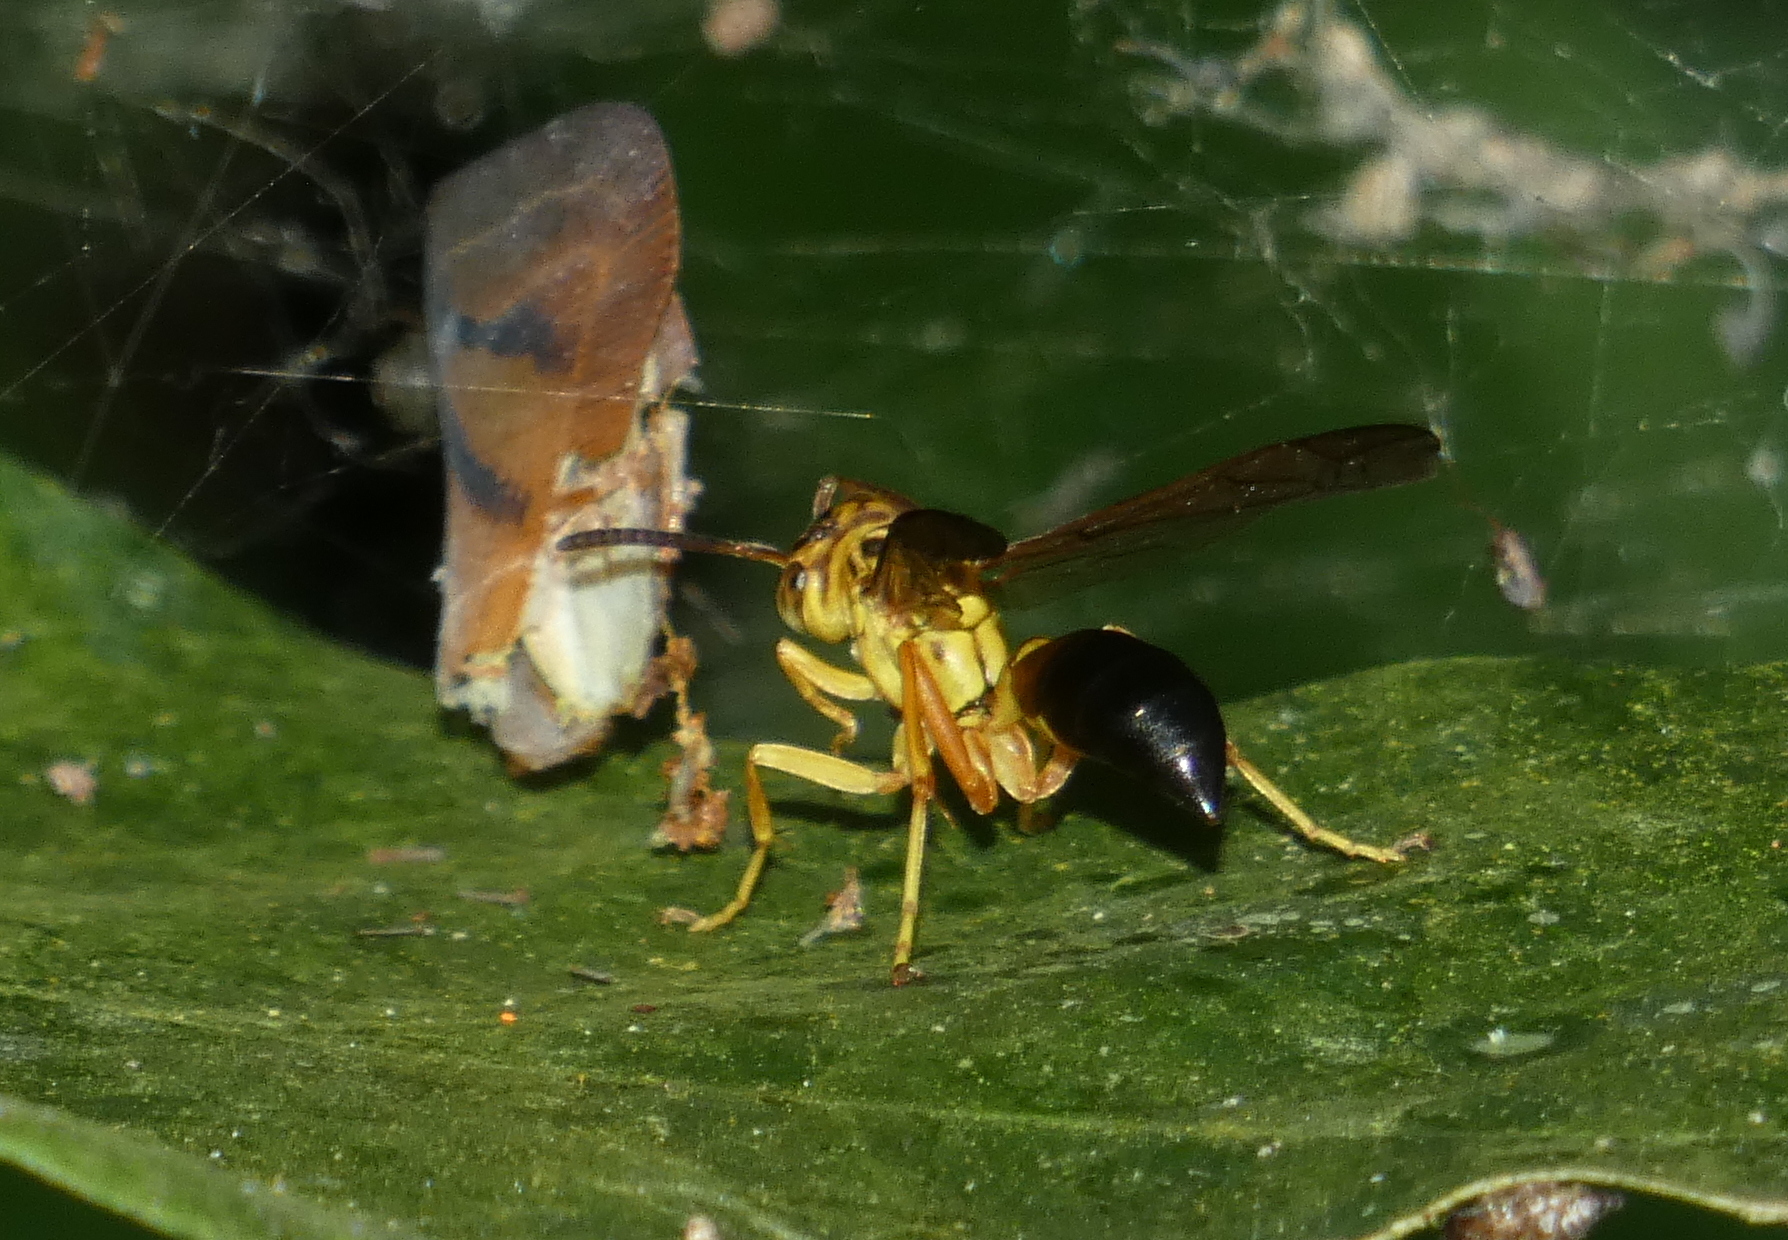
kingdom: Animalia
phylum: Arthropoda
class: Insecta
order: Hymenoptera
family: Vespidae
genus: Agelaia
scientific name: Agelaia pallipes
